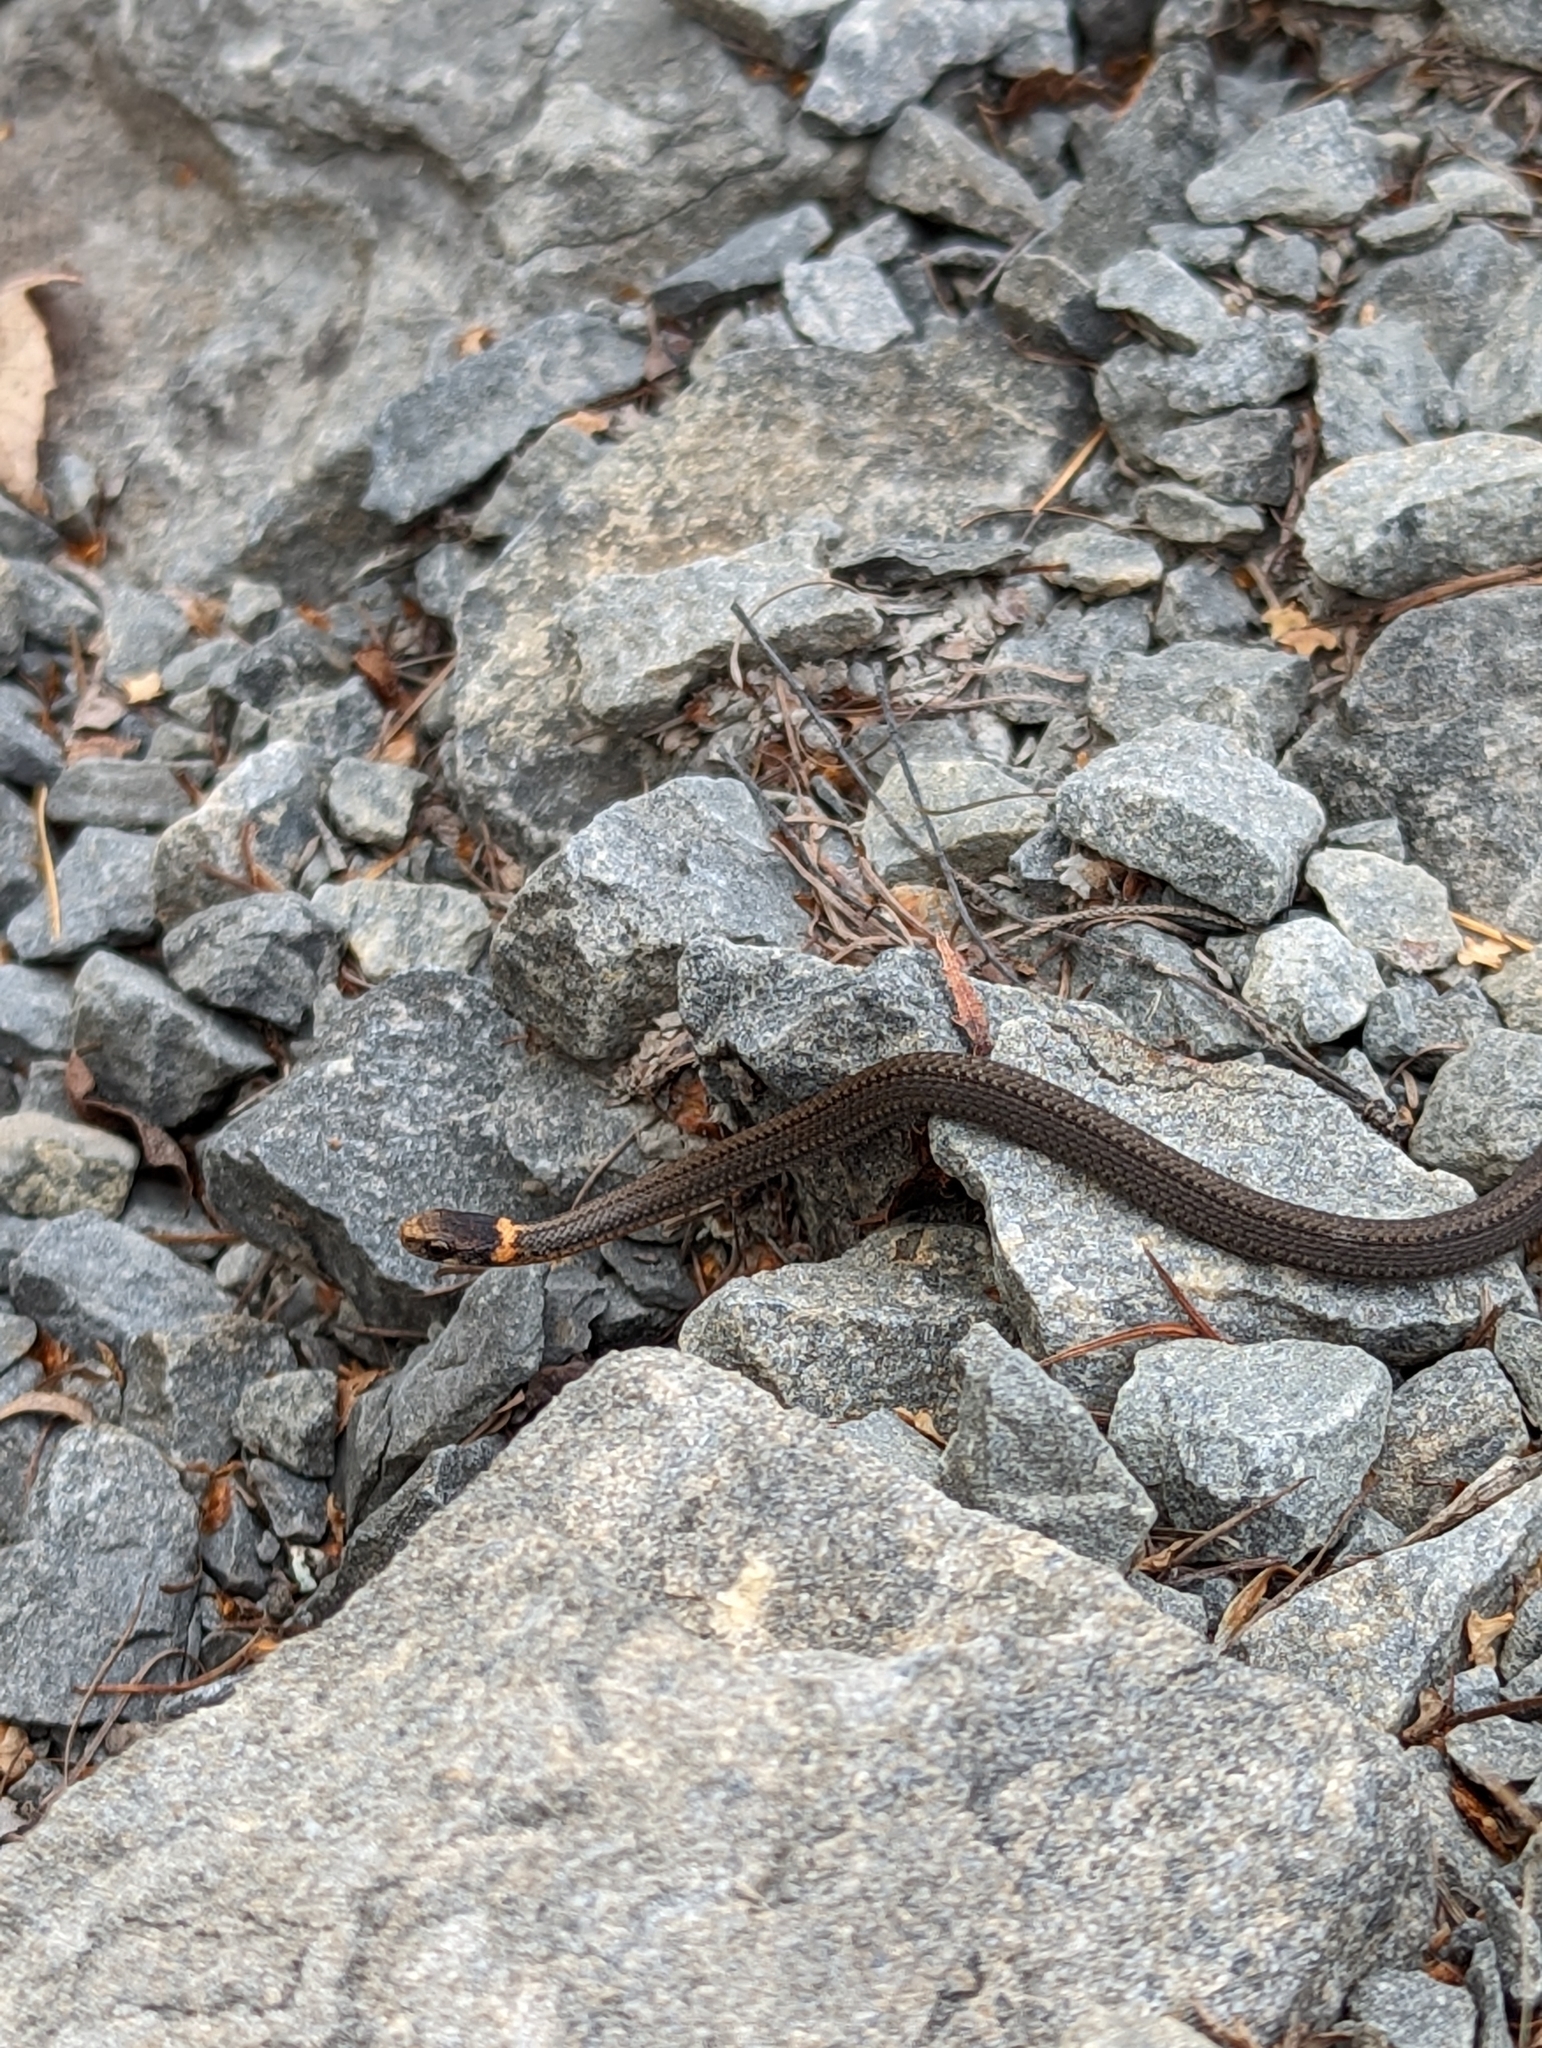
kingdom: Animalia
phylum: Chordata
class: Squamata
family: Colubridae
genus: Storeria
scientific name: Storeria occipitomaculata
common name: Redbelly snake
